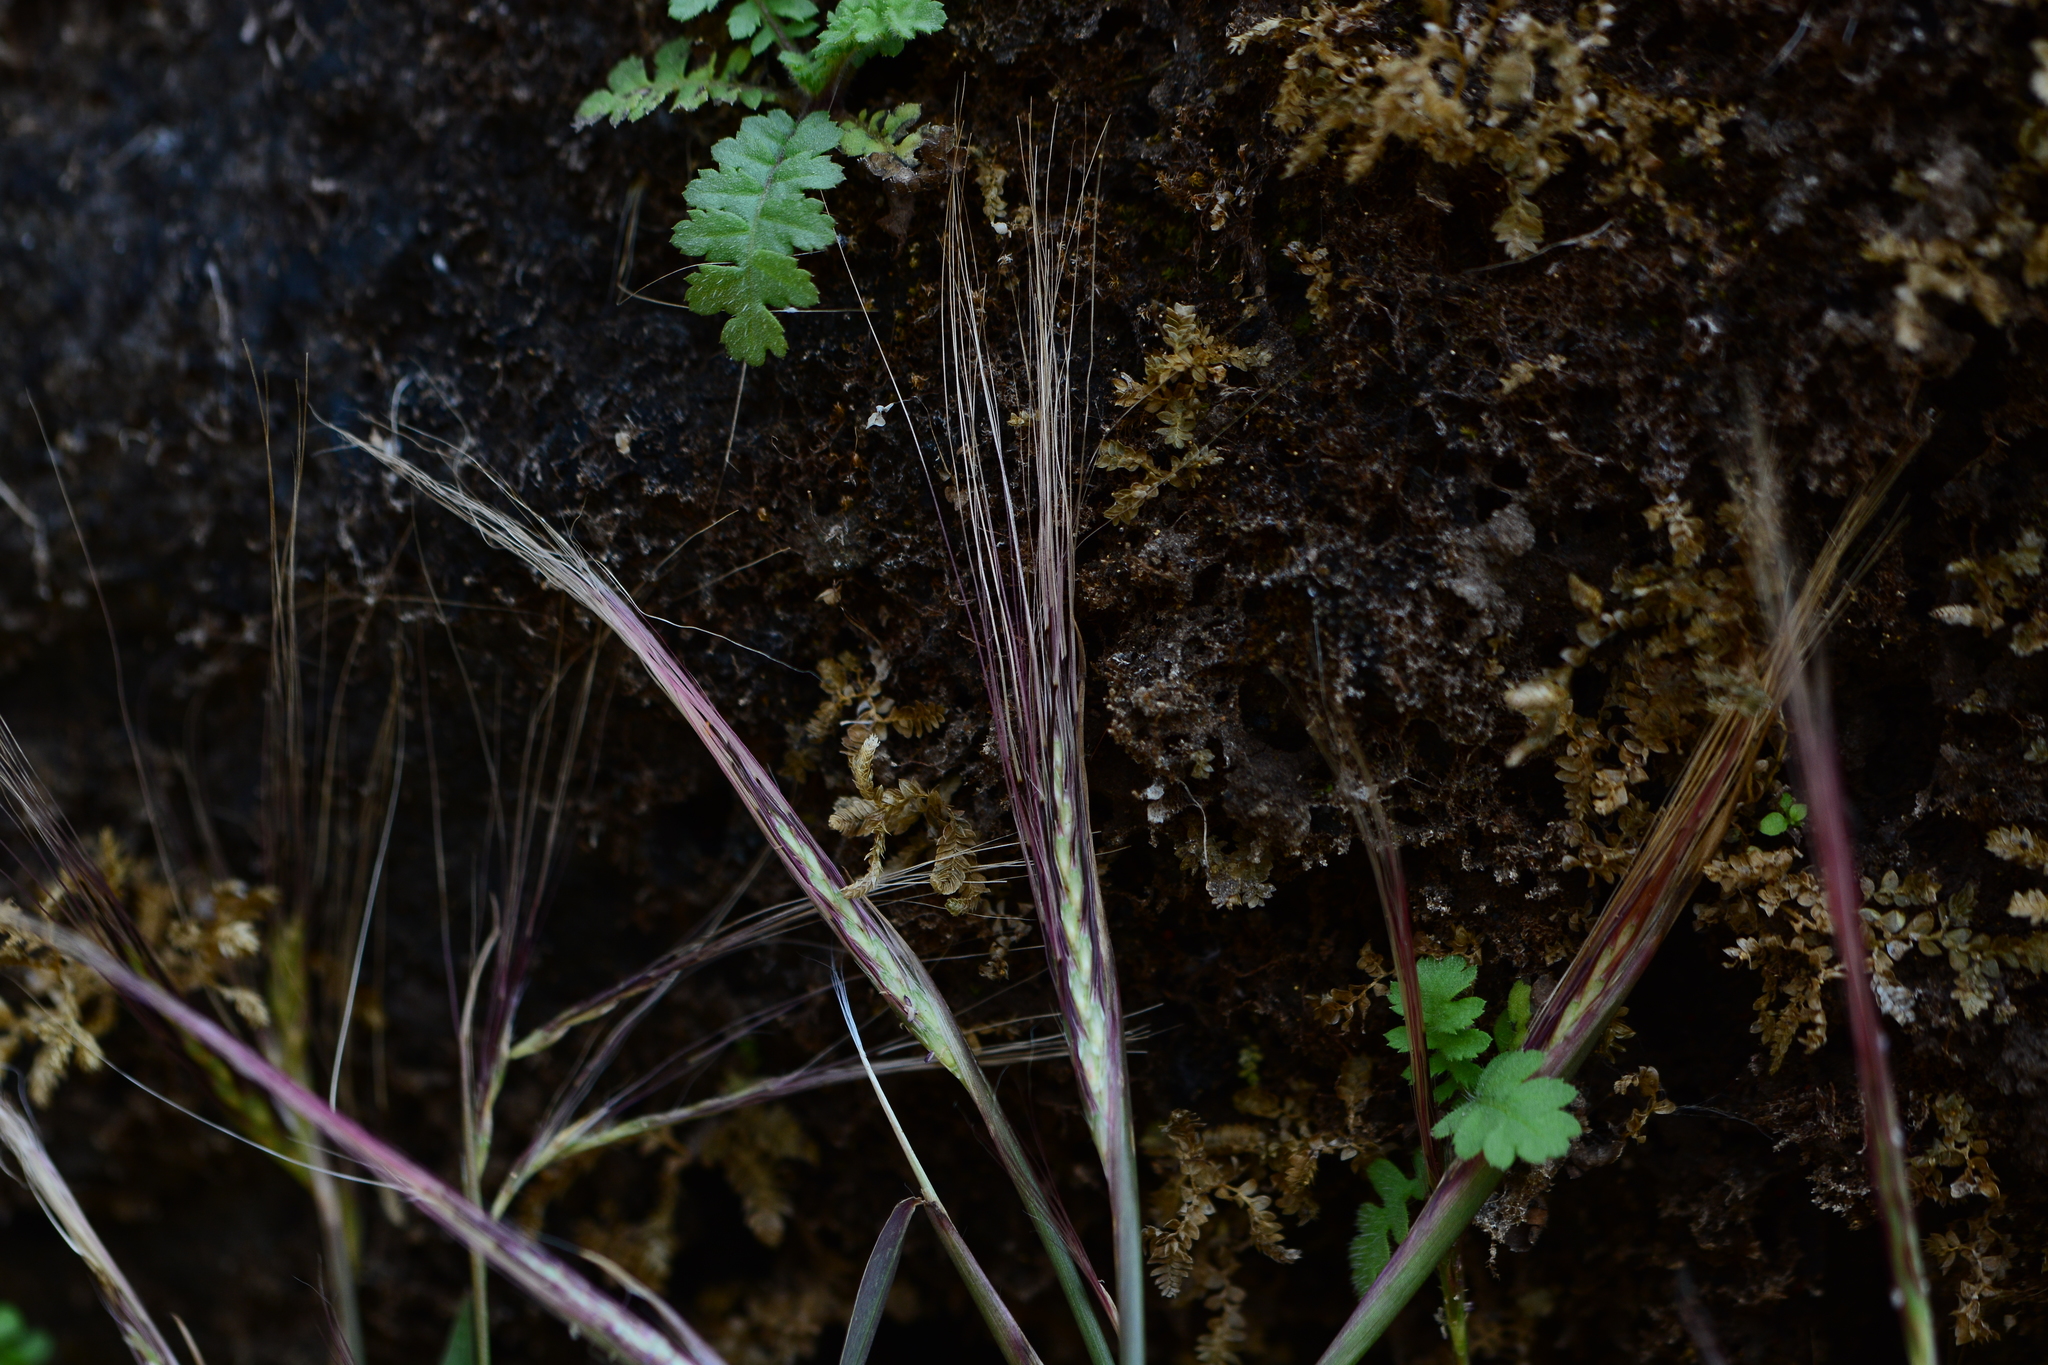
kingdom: Plantae
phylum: Tracheophyta
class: Liliopsida
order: Poales
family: Poaceae
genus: Ischaemum
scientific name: Ischaemum kingii
